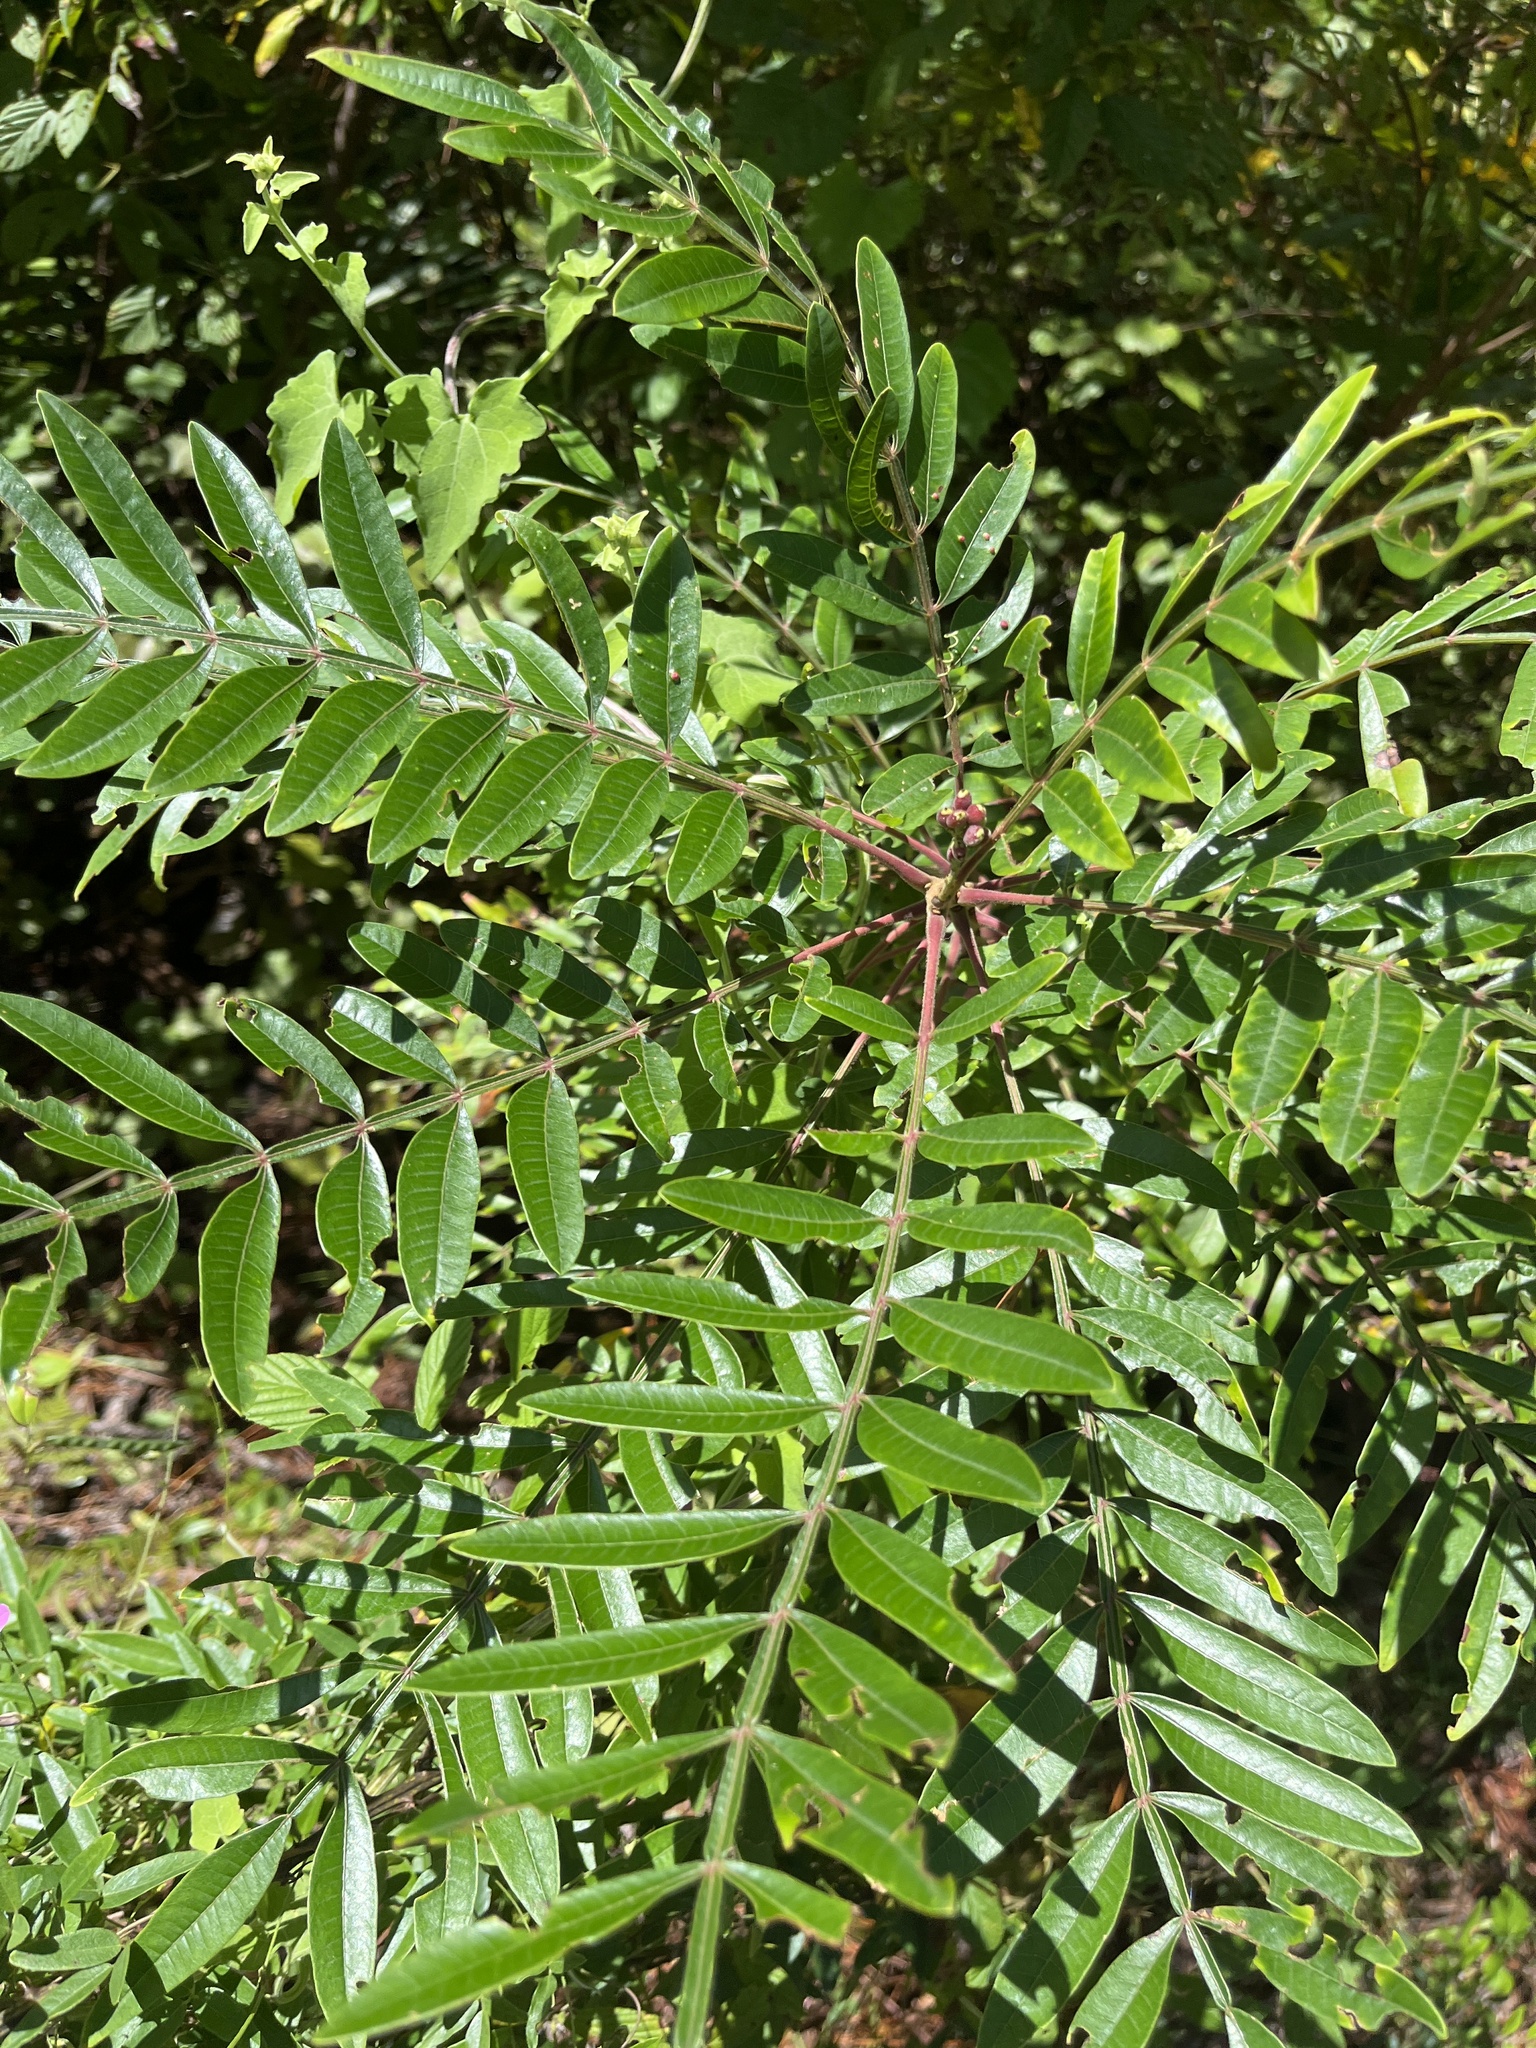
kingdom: Plantae
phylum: Tracheophyta
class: Magnoliopsida
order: Sapindales
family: Anacardiaceae
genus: Rhus
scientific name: Rhus copallina
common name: Shining sumac
